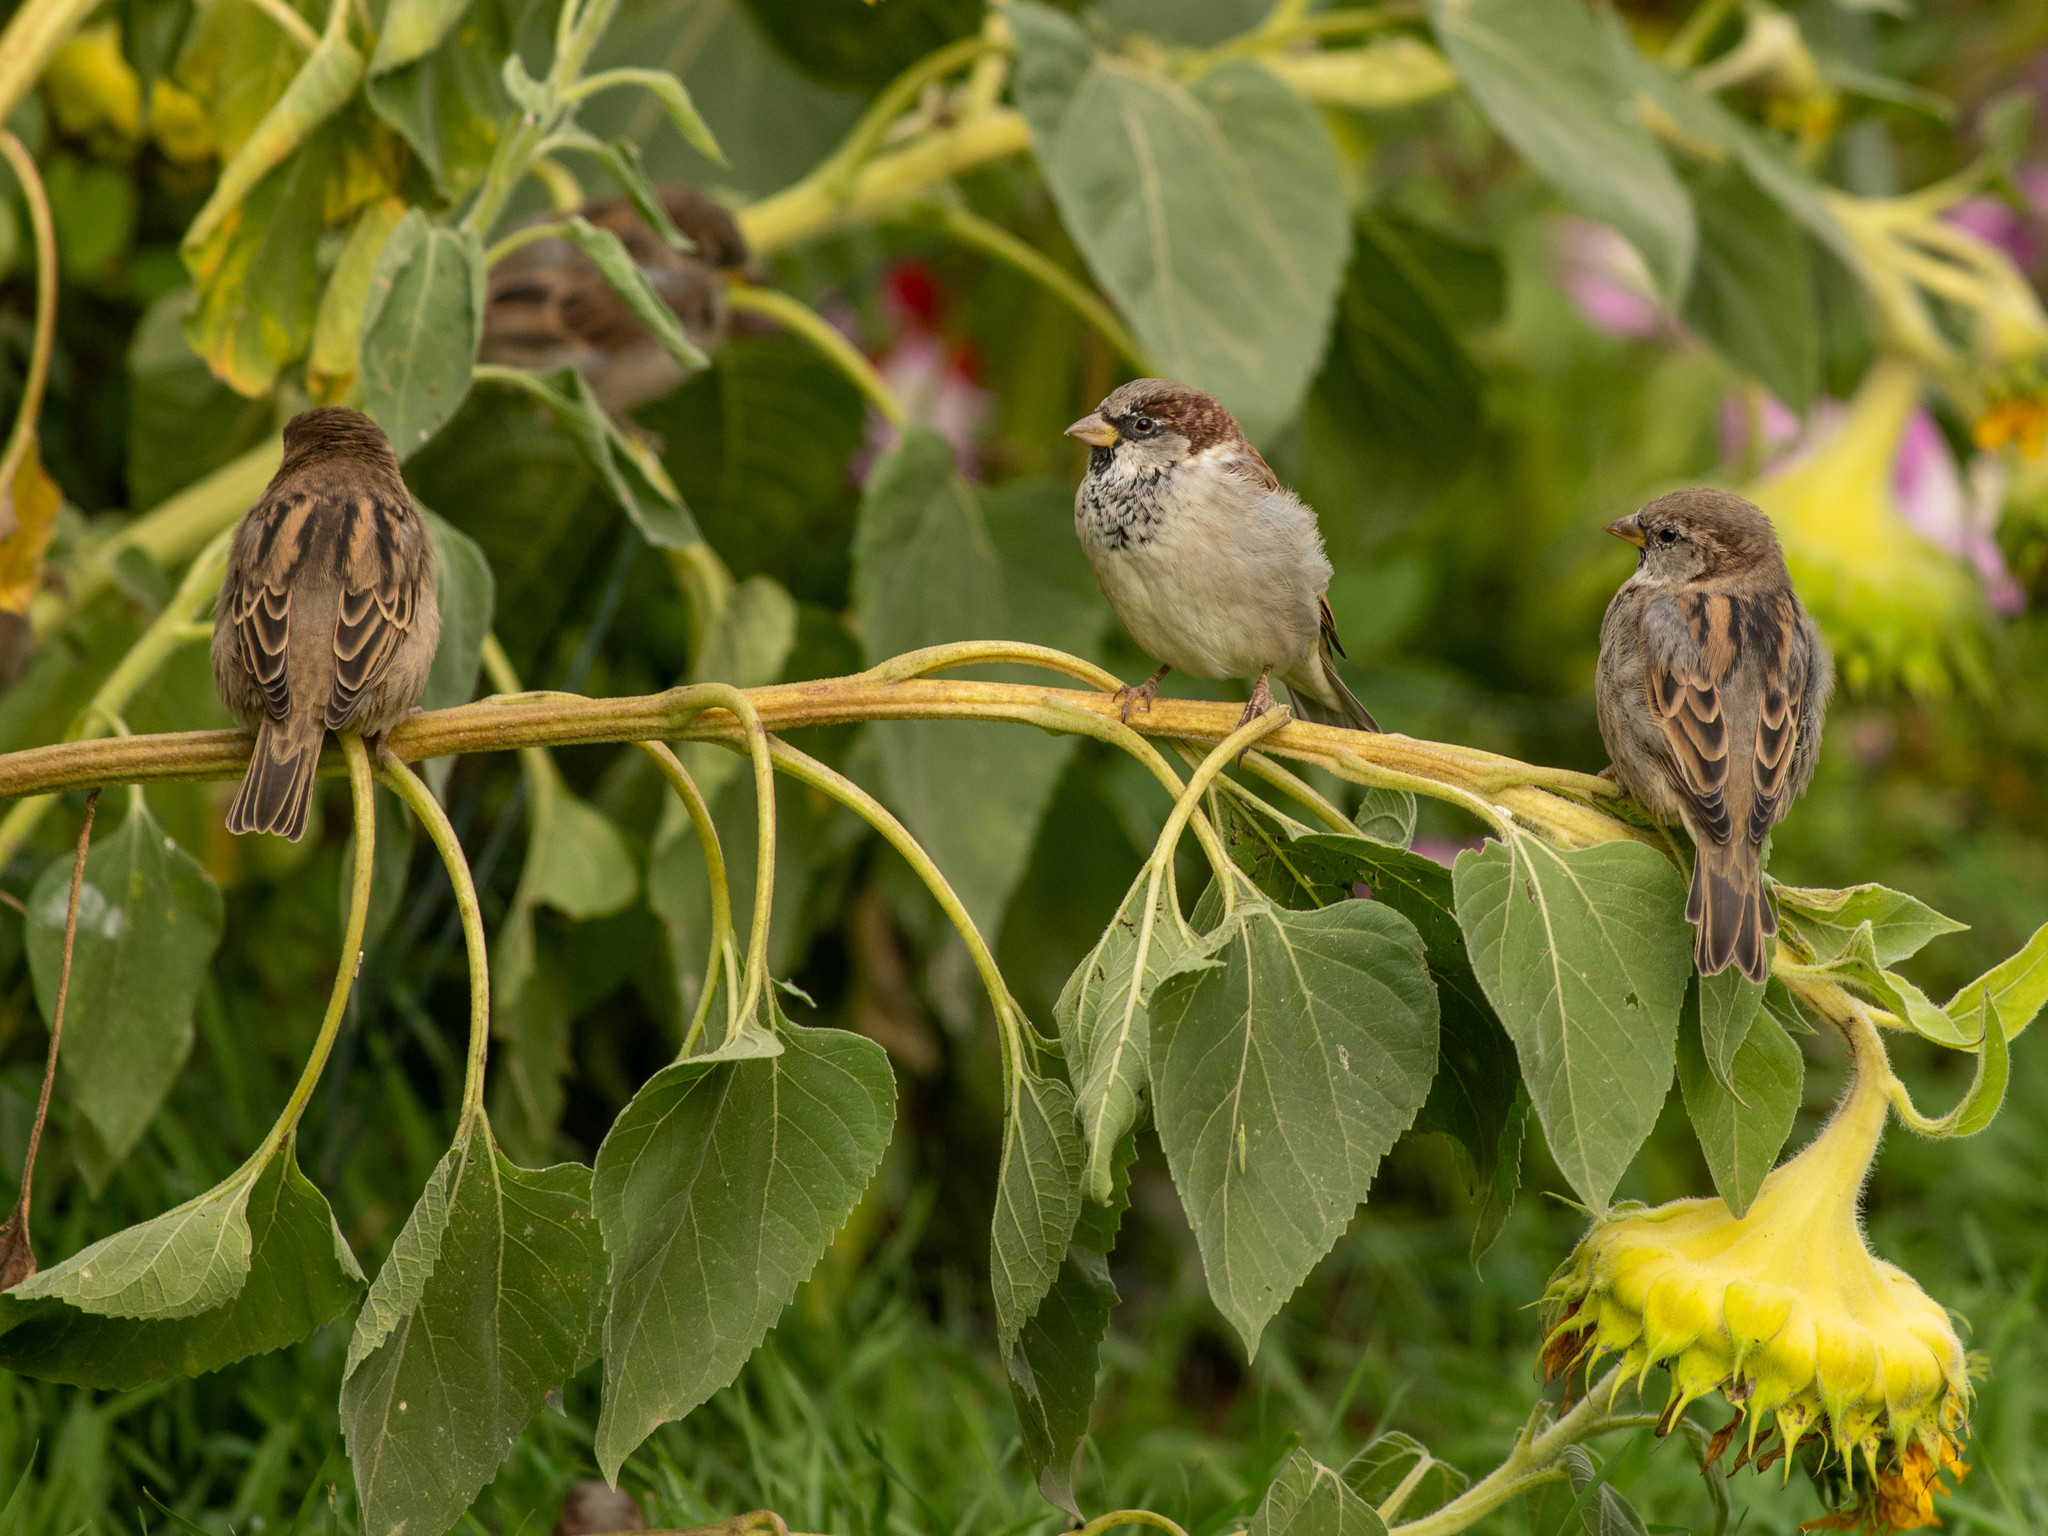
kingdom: Animalia
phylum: Chordata
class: Aves
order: Passeriformes
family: Passeridae
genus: Passer
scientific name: Passer domesticus
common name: House sparrow
